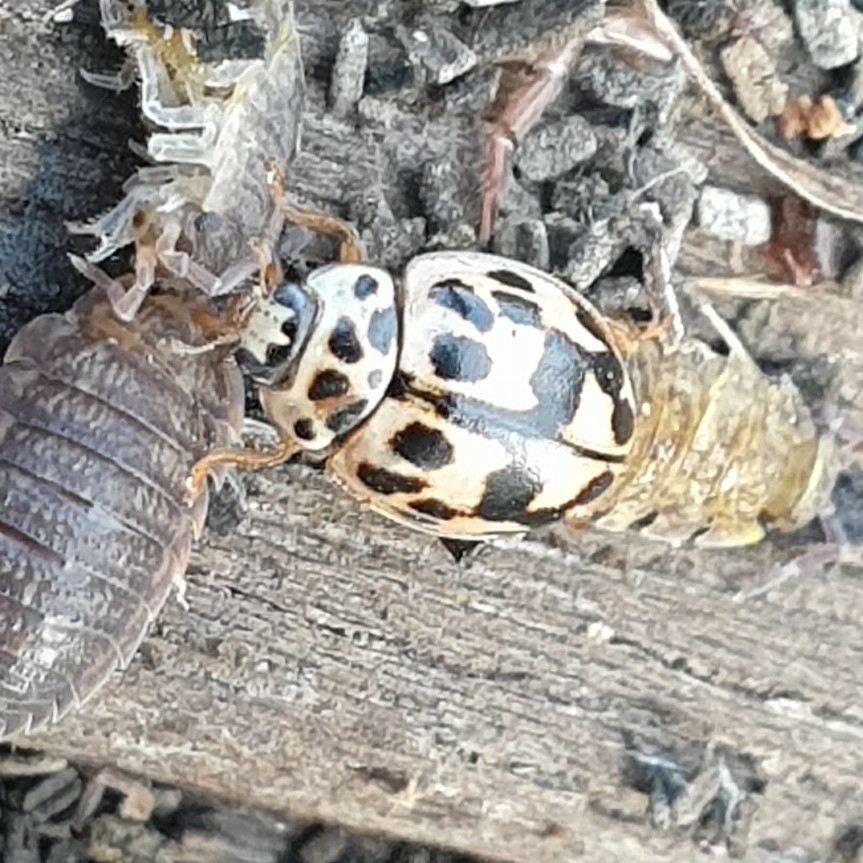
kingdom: Animalia
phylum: Arthropoda
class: Insecta
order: Coleoptera
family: Coccinellidae
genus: Oenopia
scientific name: Oenopia conglobata
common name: Ladybird beetle
